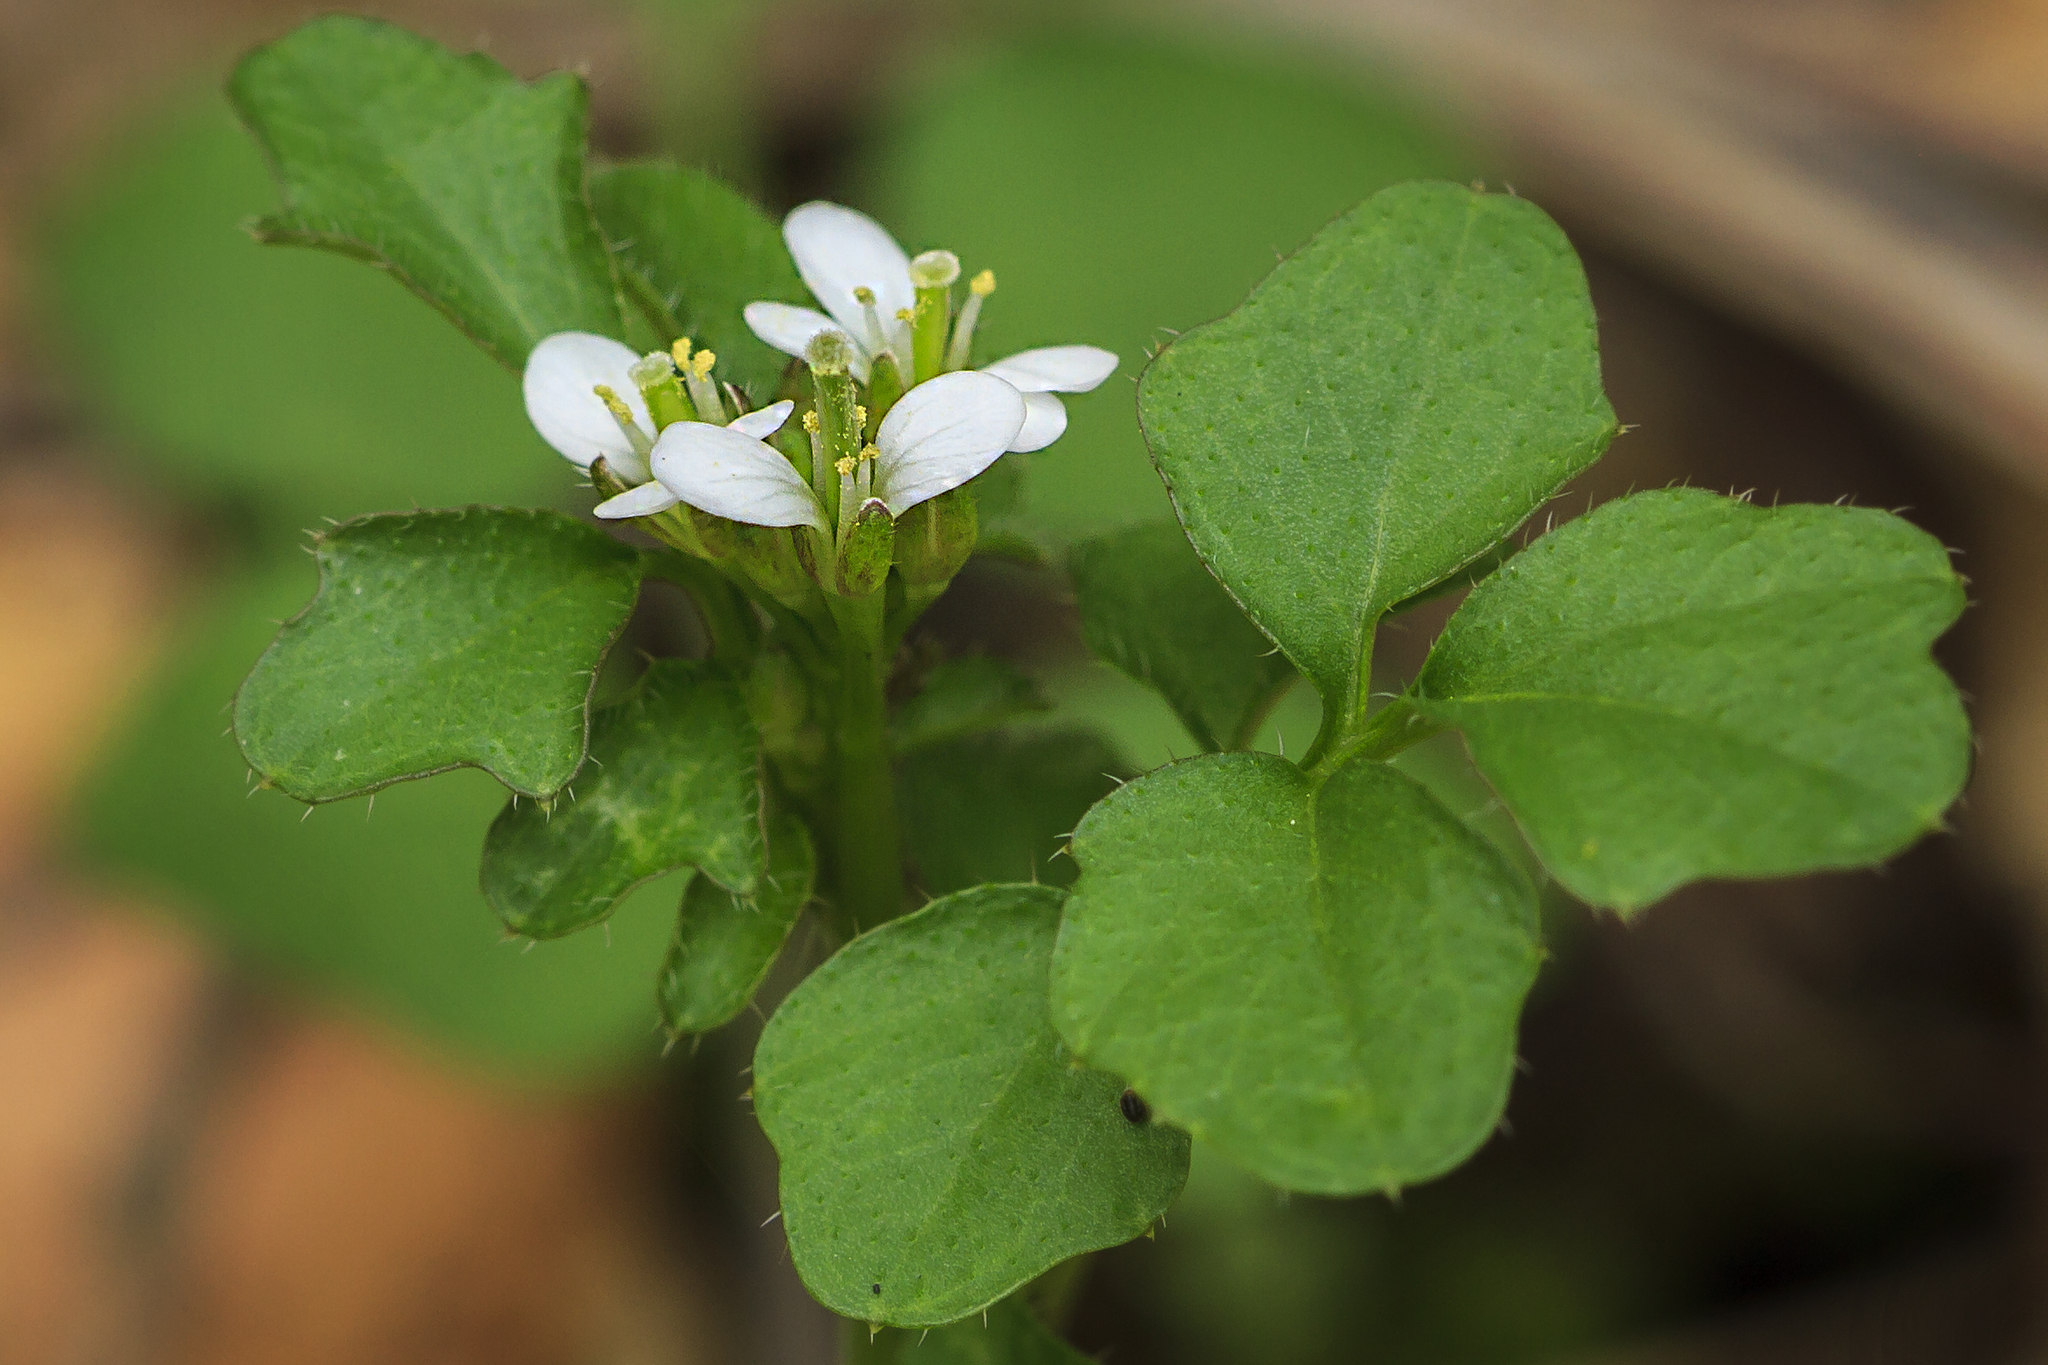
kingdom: Plantae
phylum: Tracheophyta
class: Magnoliopsida
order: Brassicales
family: Brassicaceae
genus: Cardamine
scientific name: Cardamine hirsuta
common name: Hairy bittercress
